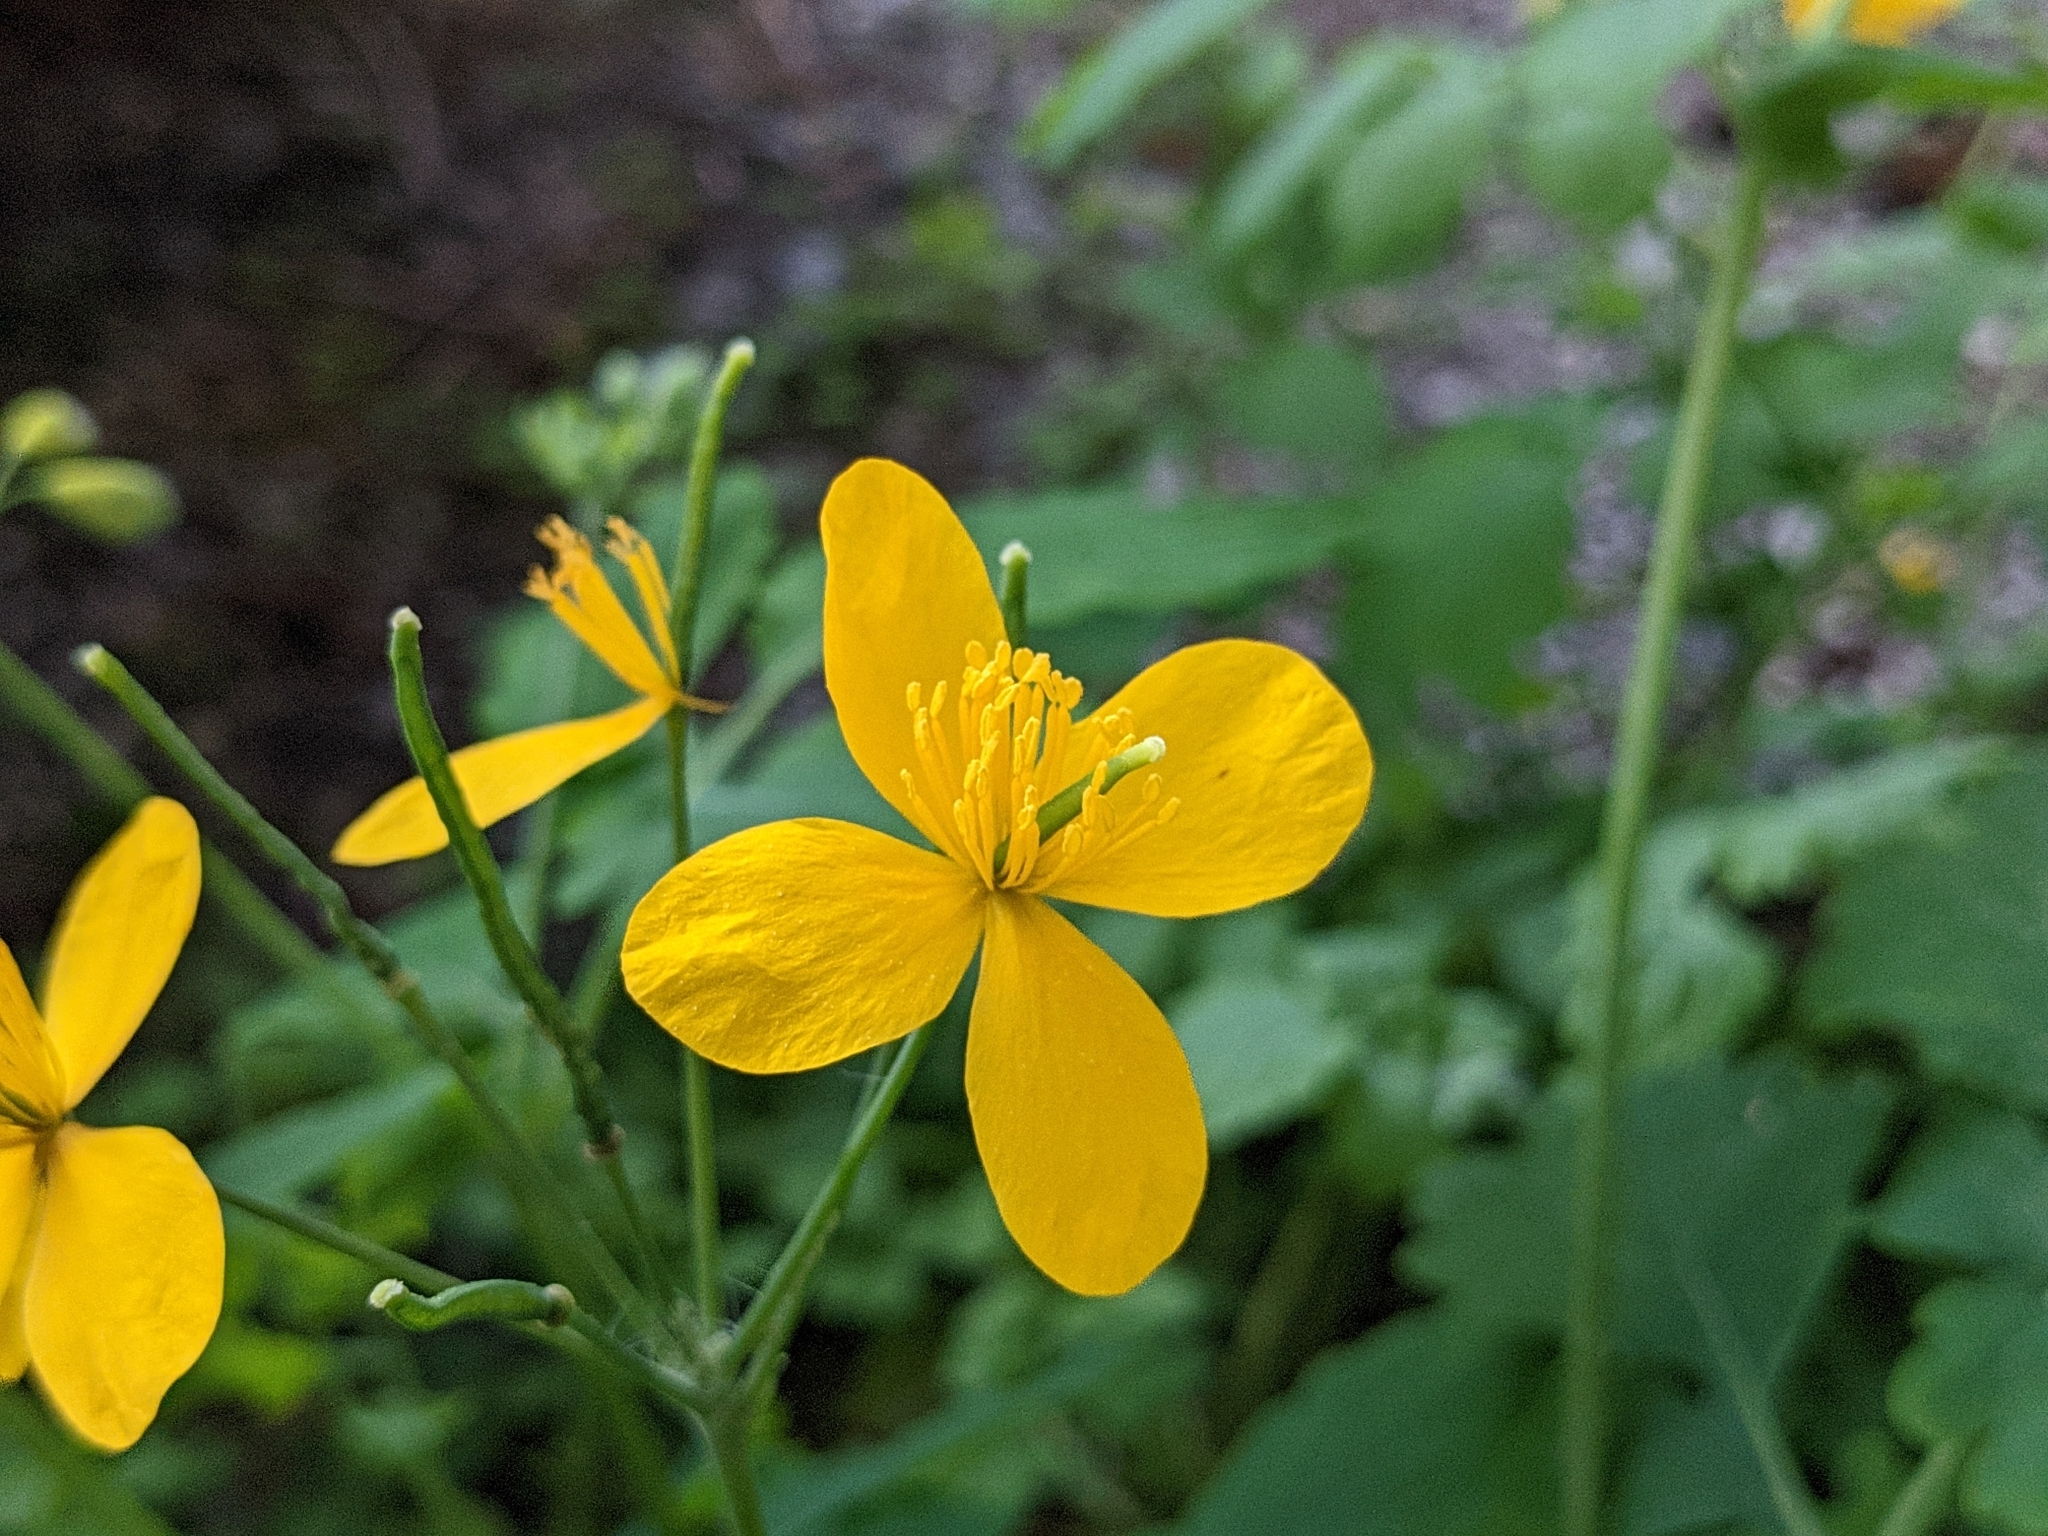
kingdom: Plantae
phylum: Tracheophyta
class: Magnoliopsida
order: Ranunculales
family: Papaveraceae
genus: Chelidonium
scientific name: Chelidonium majus
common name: Greater celandine
